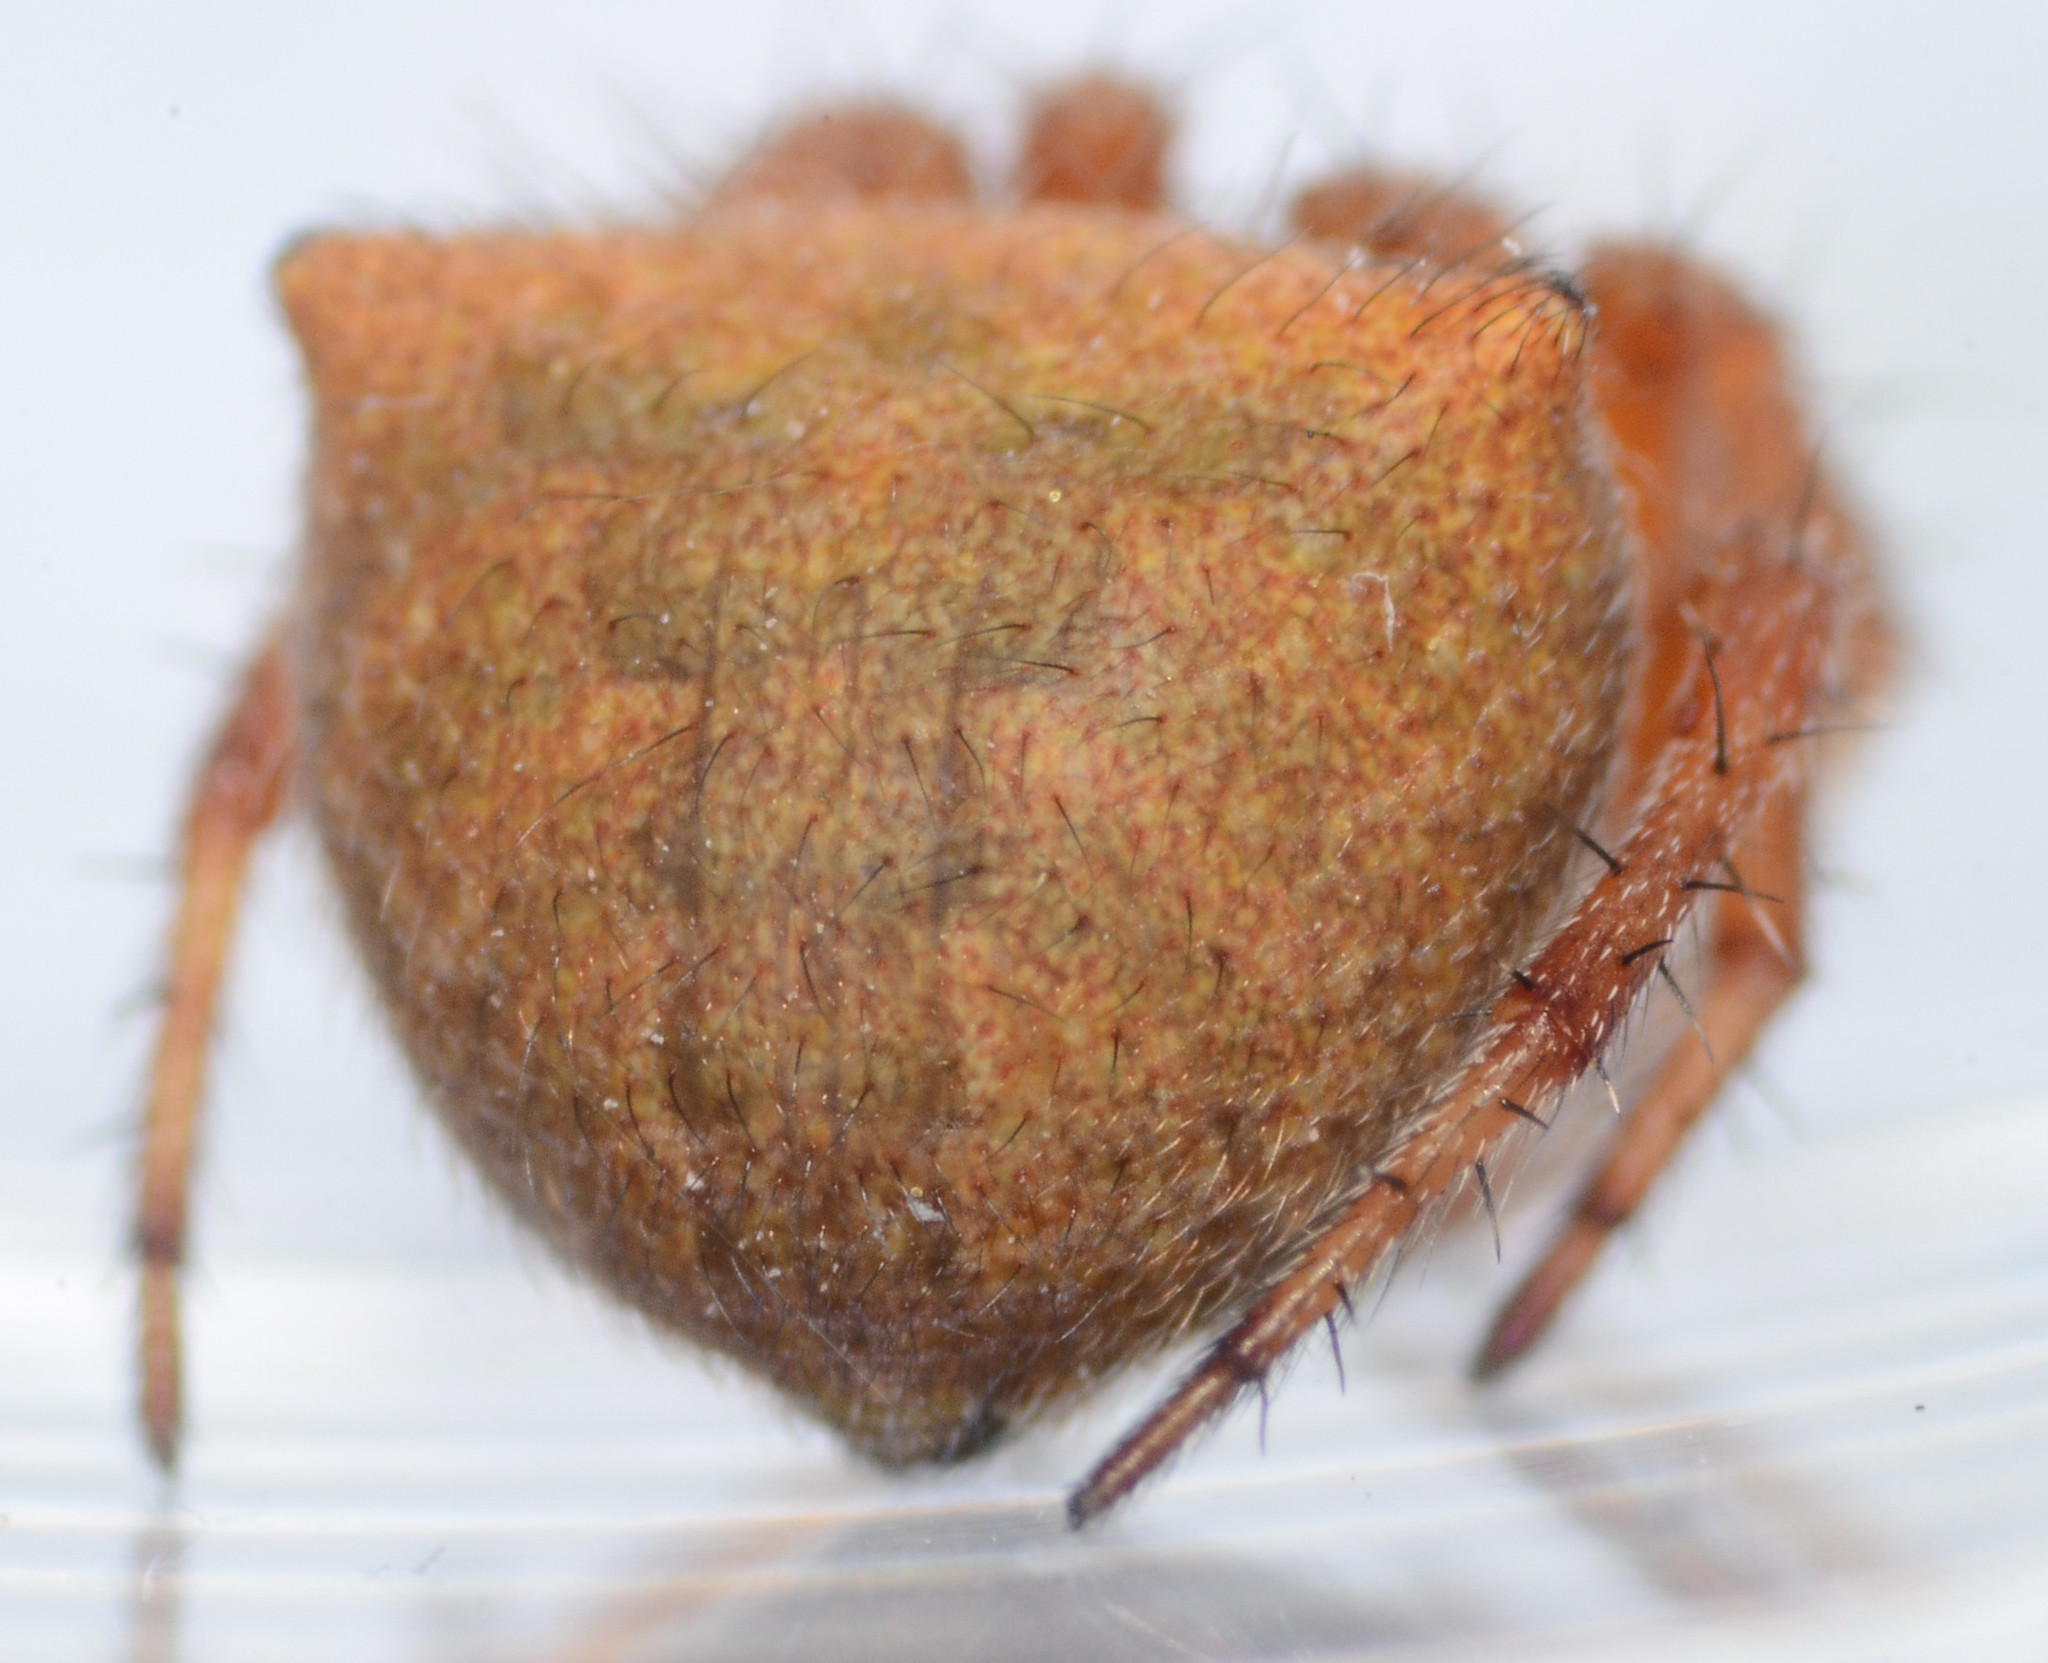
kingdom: Animalia
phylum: Arthropoda
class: Arachnida
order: Araneae
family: Araneidae
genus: Araneus
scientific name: Araneus bispinosus
